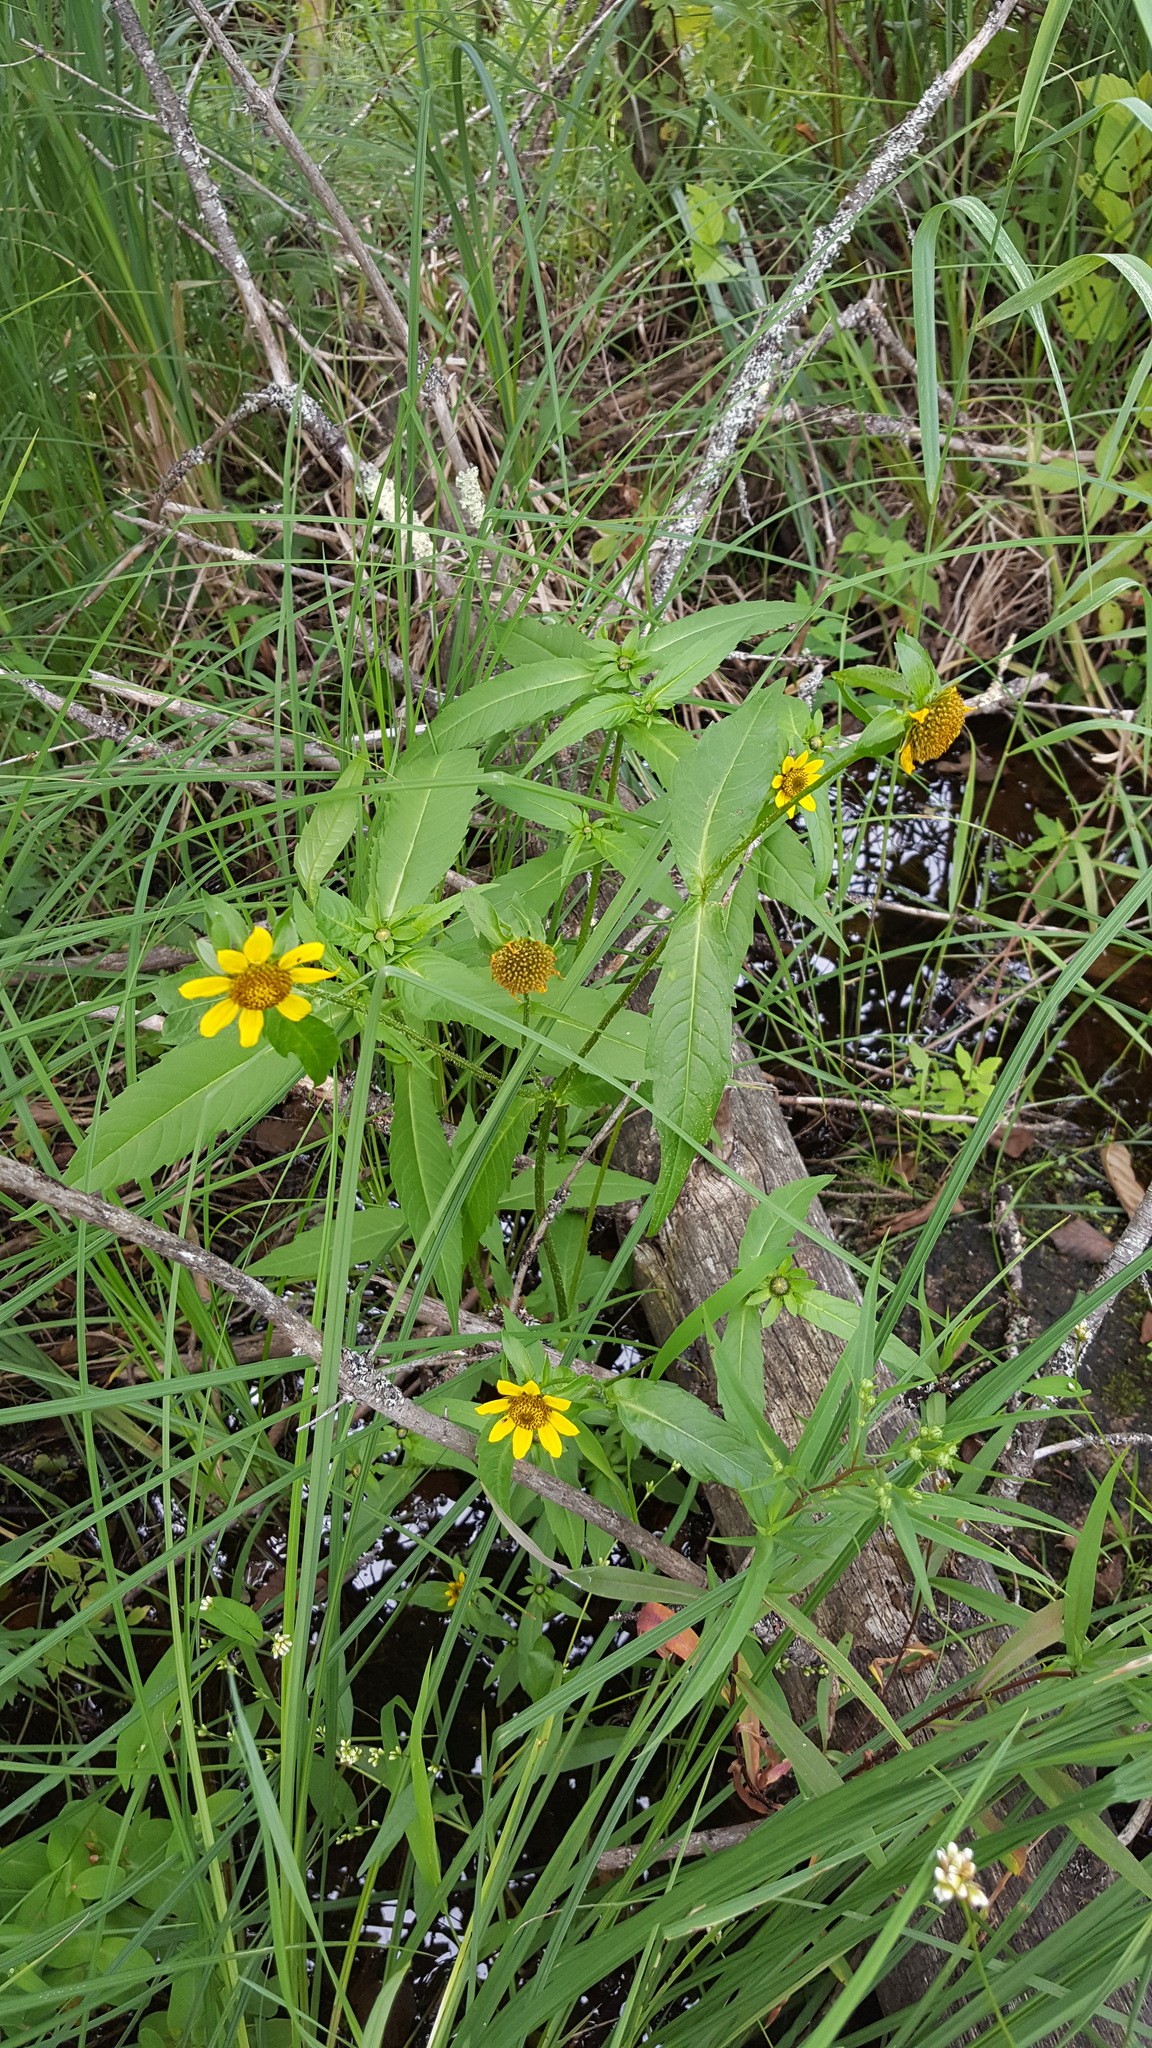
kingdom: Plantae
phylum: Tracheophyta
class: Magnoliopsida
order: Asterales
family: Asteraceae
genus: Bidens
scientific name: Bidens cernua
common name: Nodding bur-marigold
